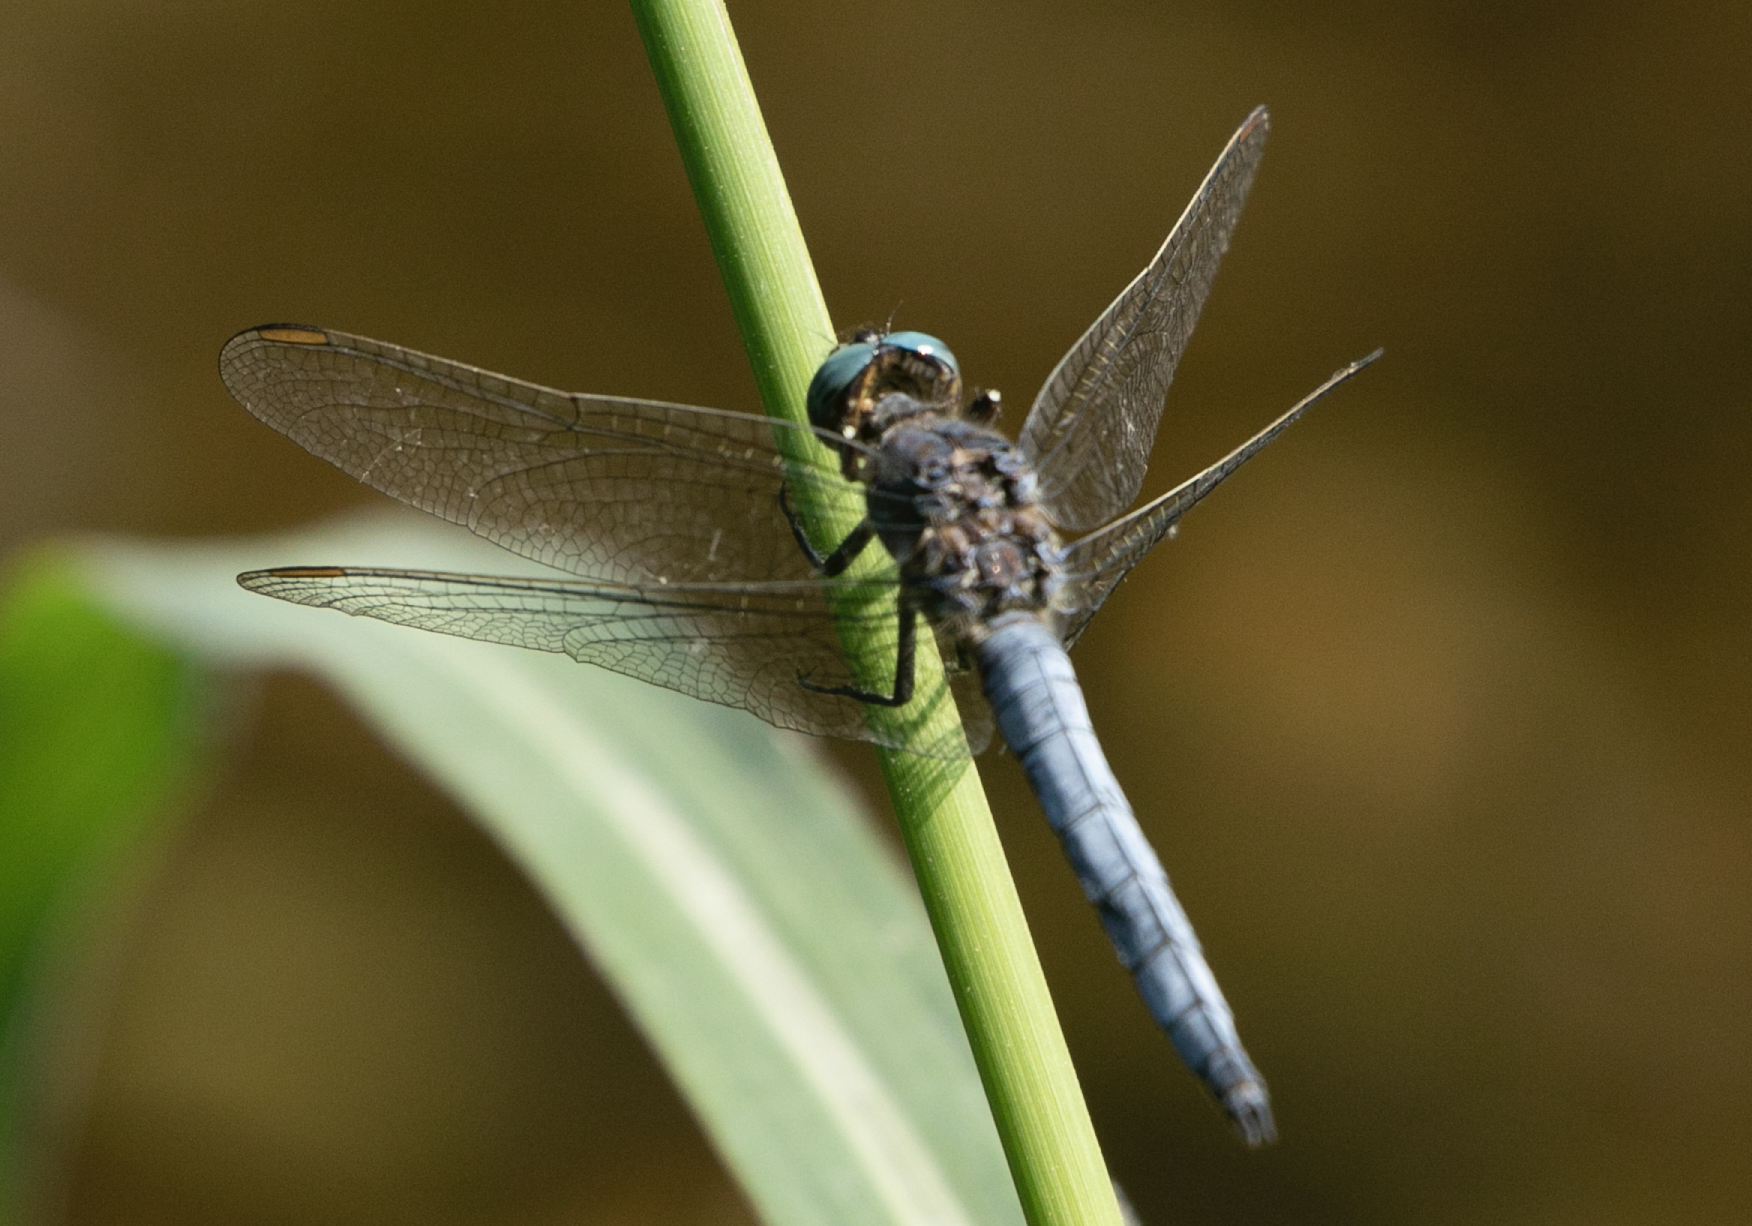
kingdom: Animalia
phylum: Arthropoda
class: Insecta
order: Odonata
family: Libellulidae
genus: Orthetrum
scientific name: Orthetrum coerulescens
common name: Keeled skimmer
